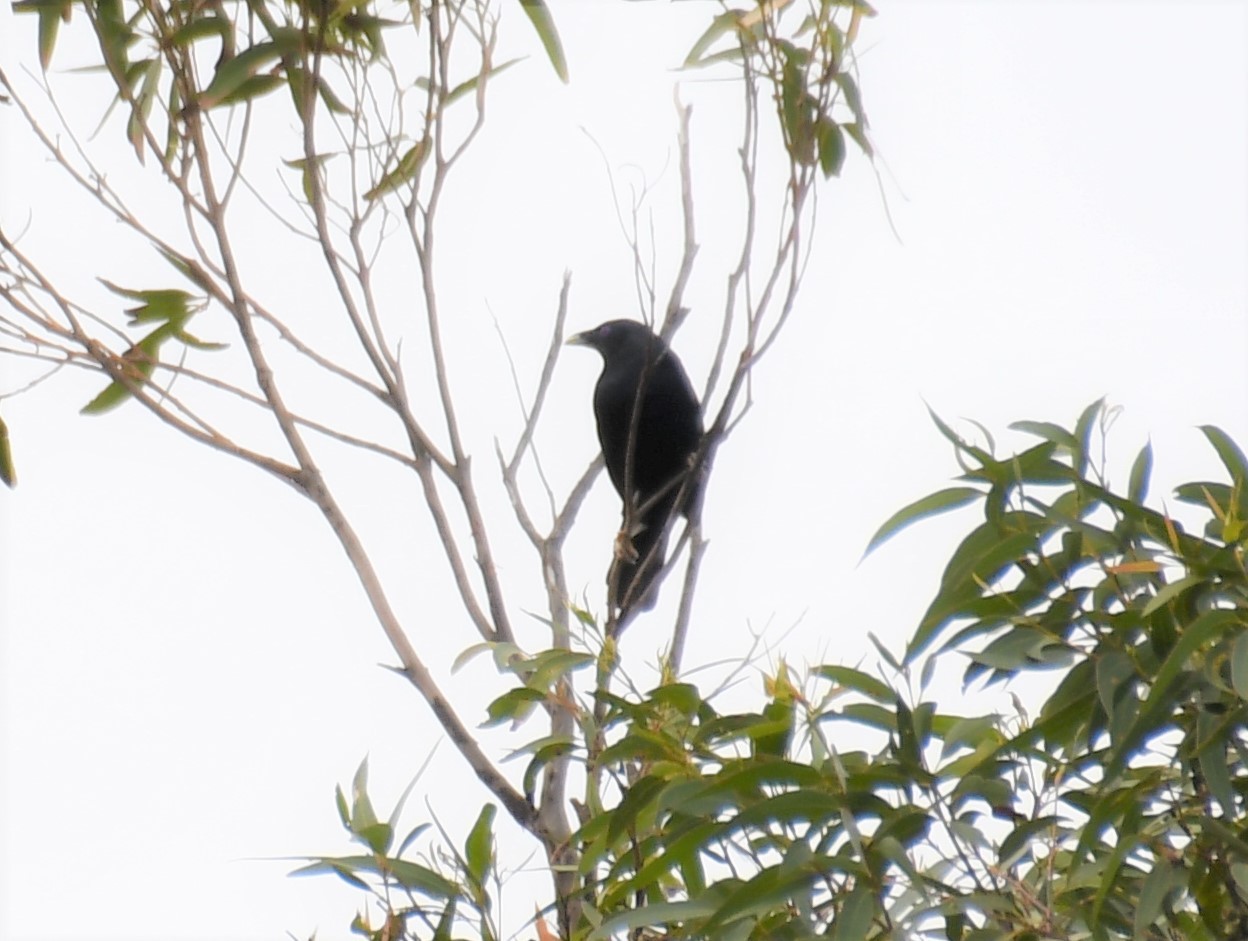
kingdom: Animalia
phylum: Chordata
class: Aves
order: Passeriformes
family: Ptilonorhynchidae
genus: Ptilonorhynchus
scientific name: Ptilonorhynchus violaceus
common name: Satin bowerbird
